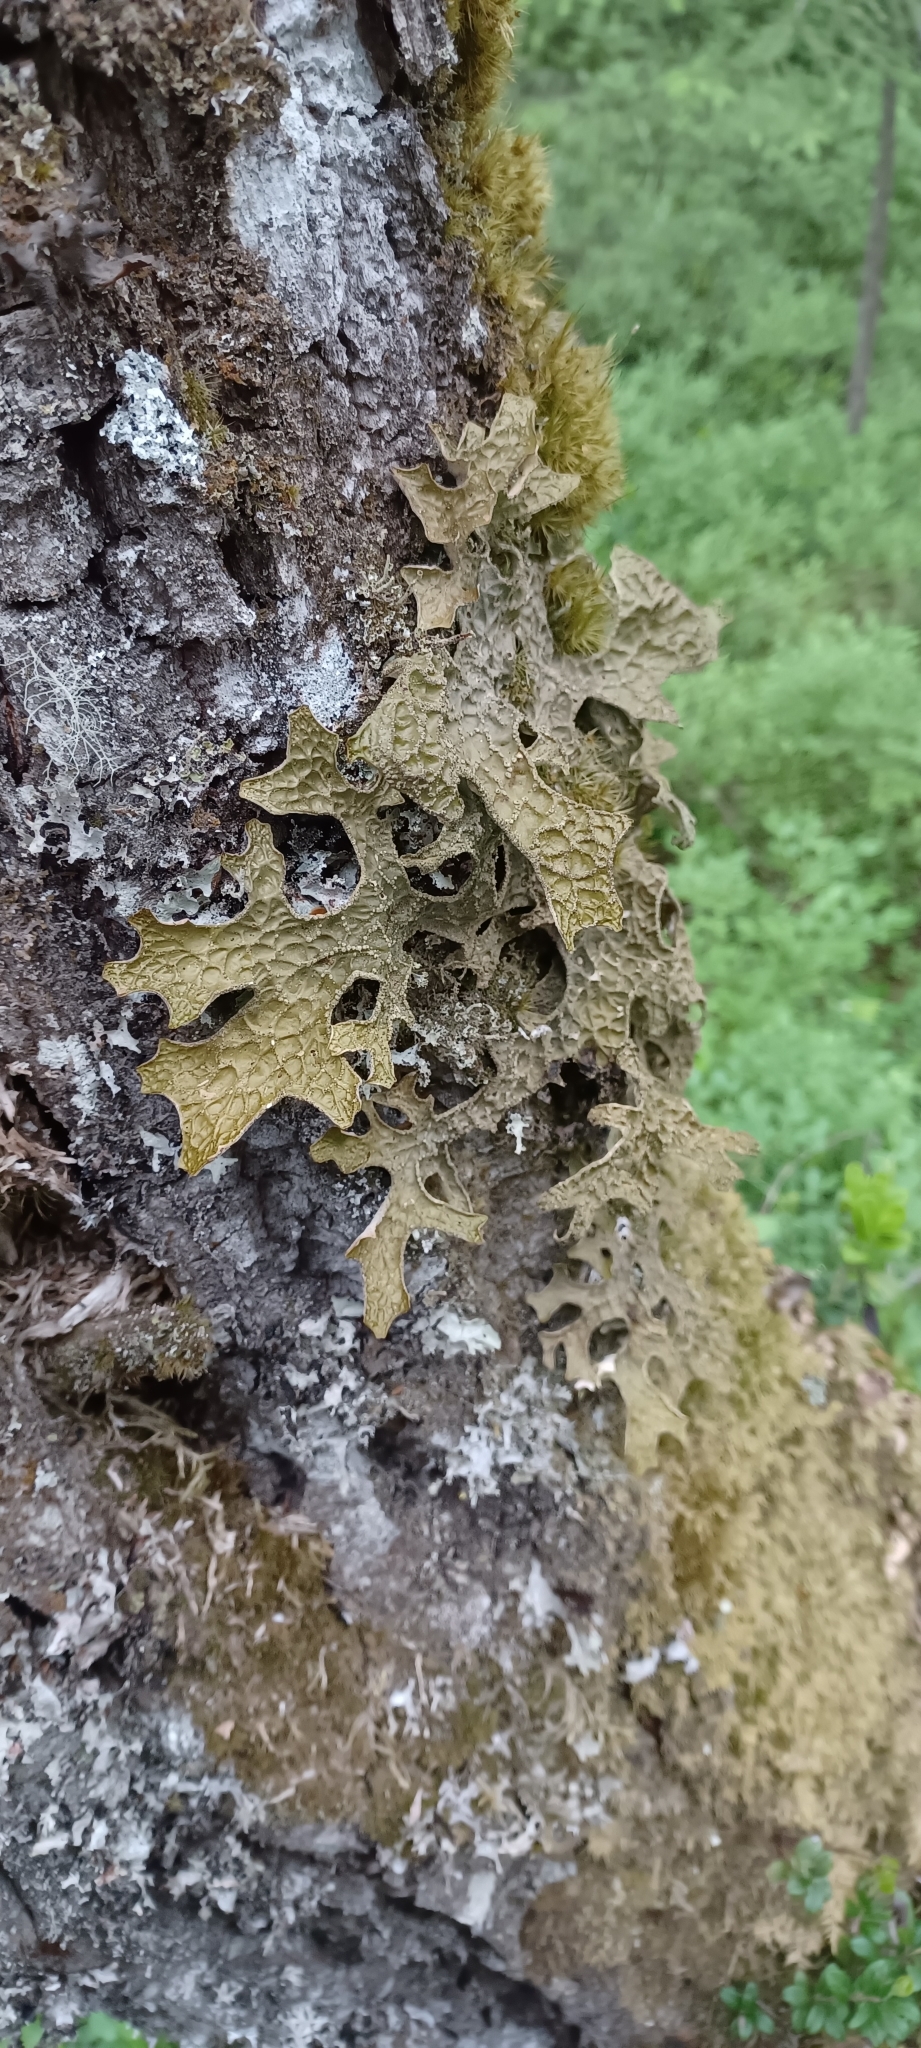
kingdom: Fungi
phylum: Ascomycota
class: Lecanoromycetes
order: Peltigerales
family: Lobariaceae
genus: Lobaria
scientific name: Lobaria pulmonaria
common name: Lungwort
